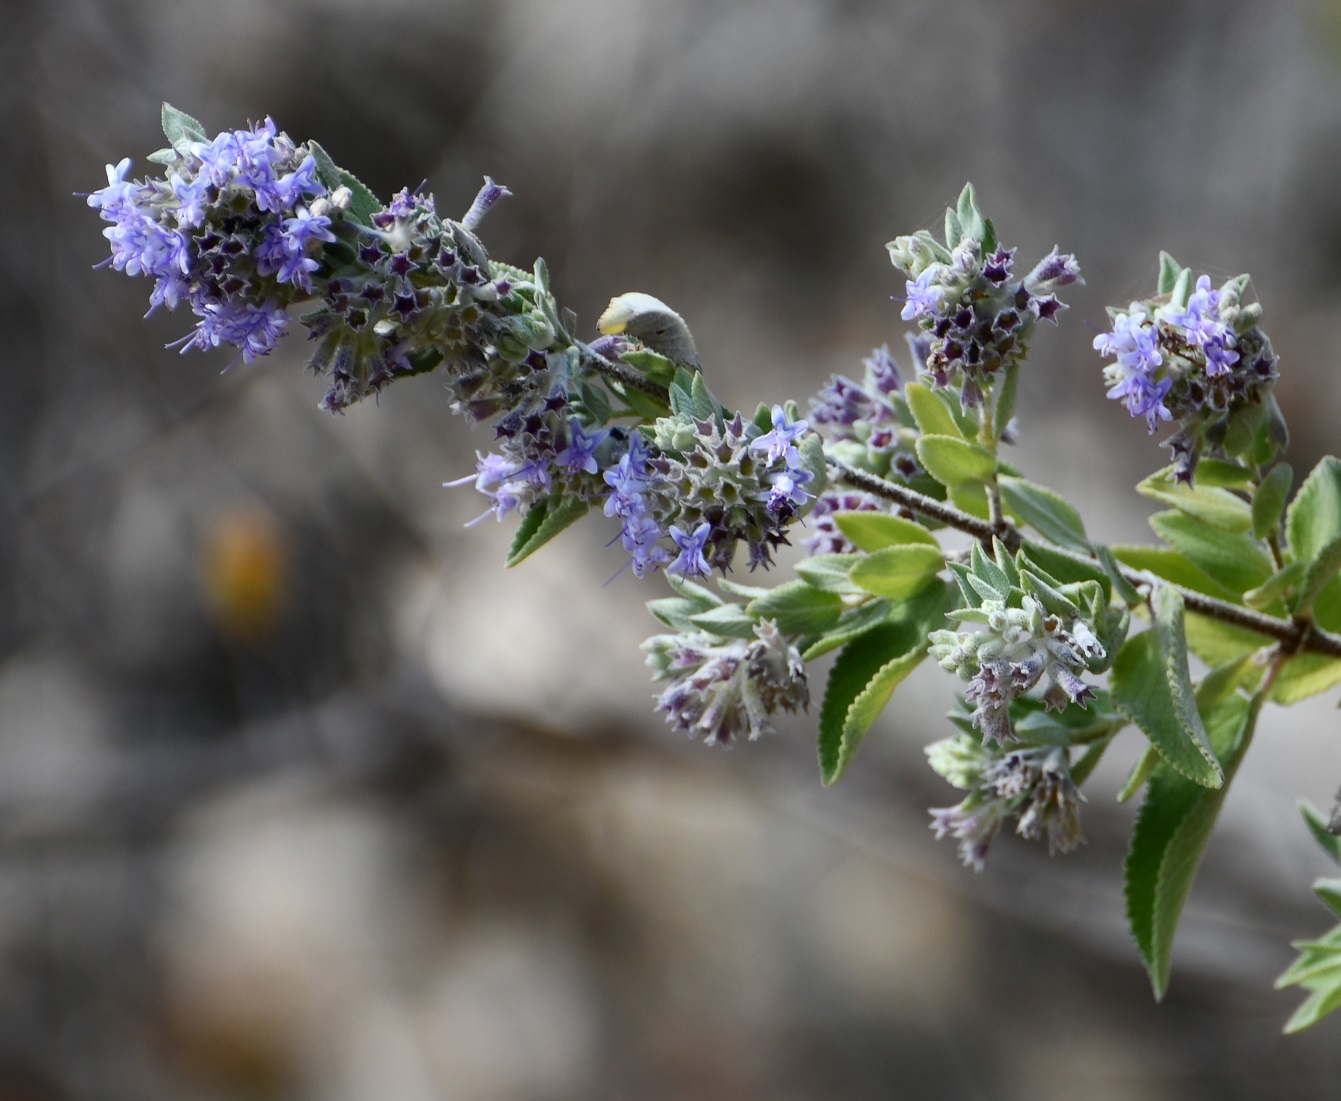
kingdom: Plantae
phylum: Tracheophyta
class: Magnoliopsida
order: Lamiales
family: Lamiaceae
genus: Condea
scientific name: Condea tomentosa
